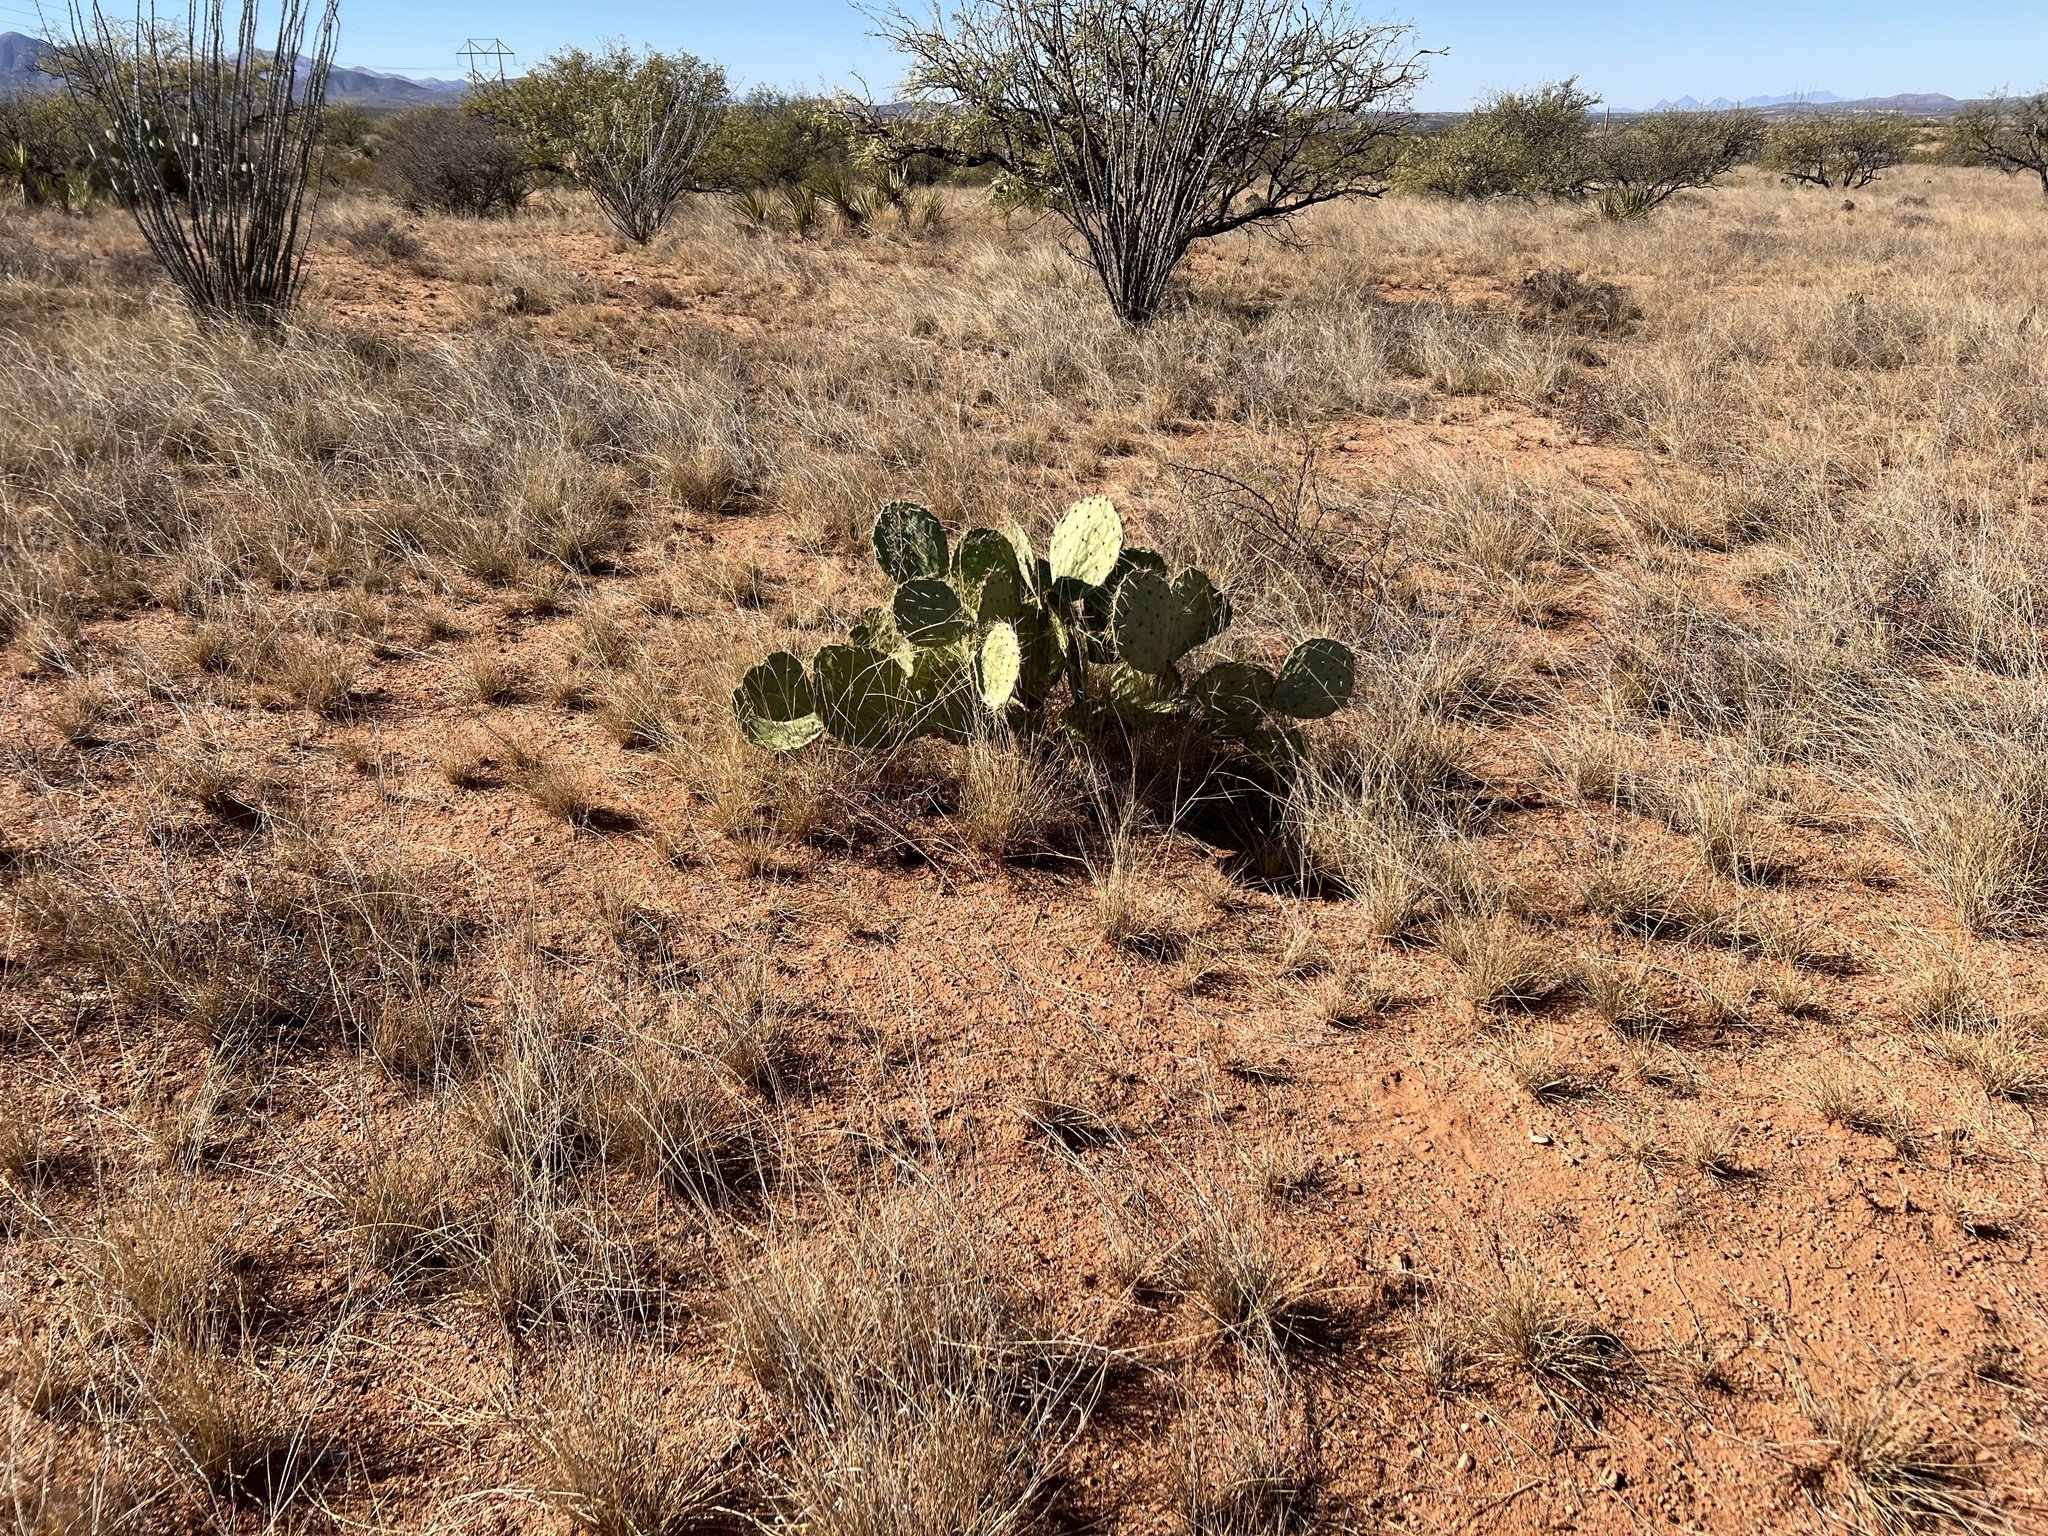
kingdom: Plantae
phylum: Tracheophyta
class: Magnoliopsida
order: Caryophyllales
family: Cactaceae
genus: Opuntia
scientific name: Opuntia engelmannii
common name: Cactus-apple
